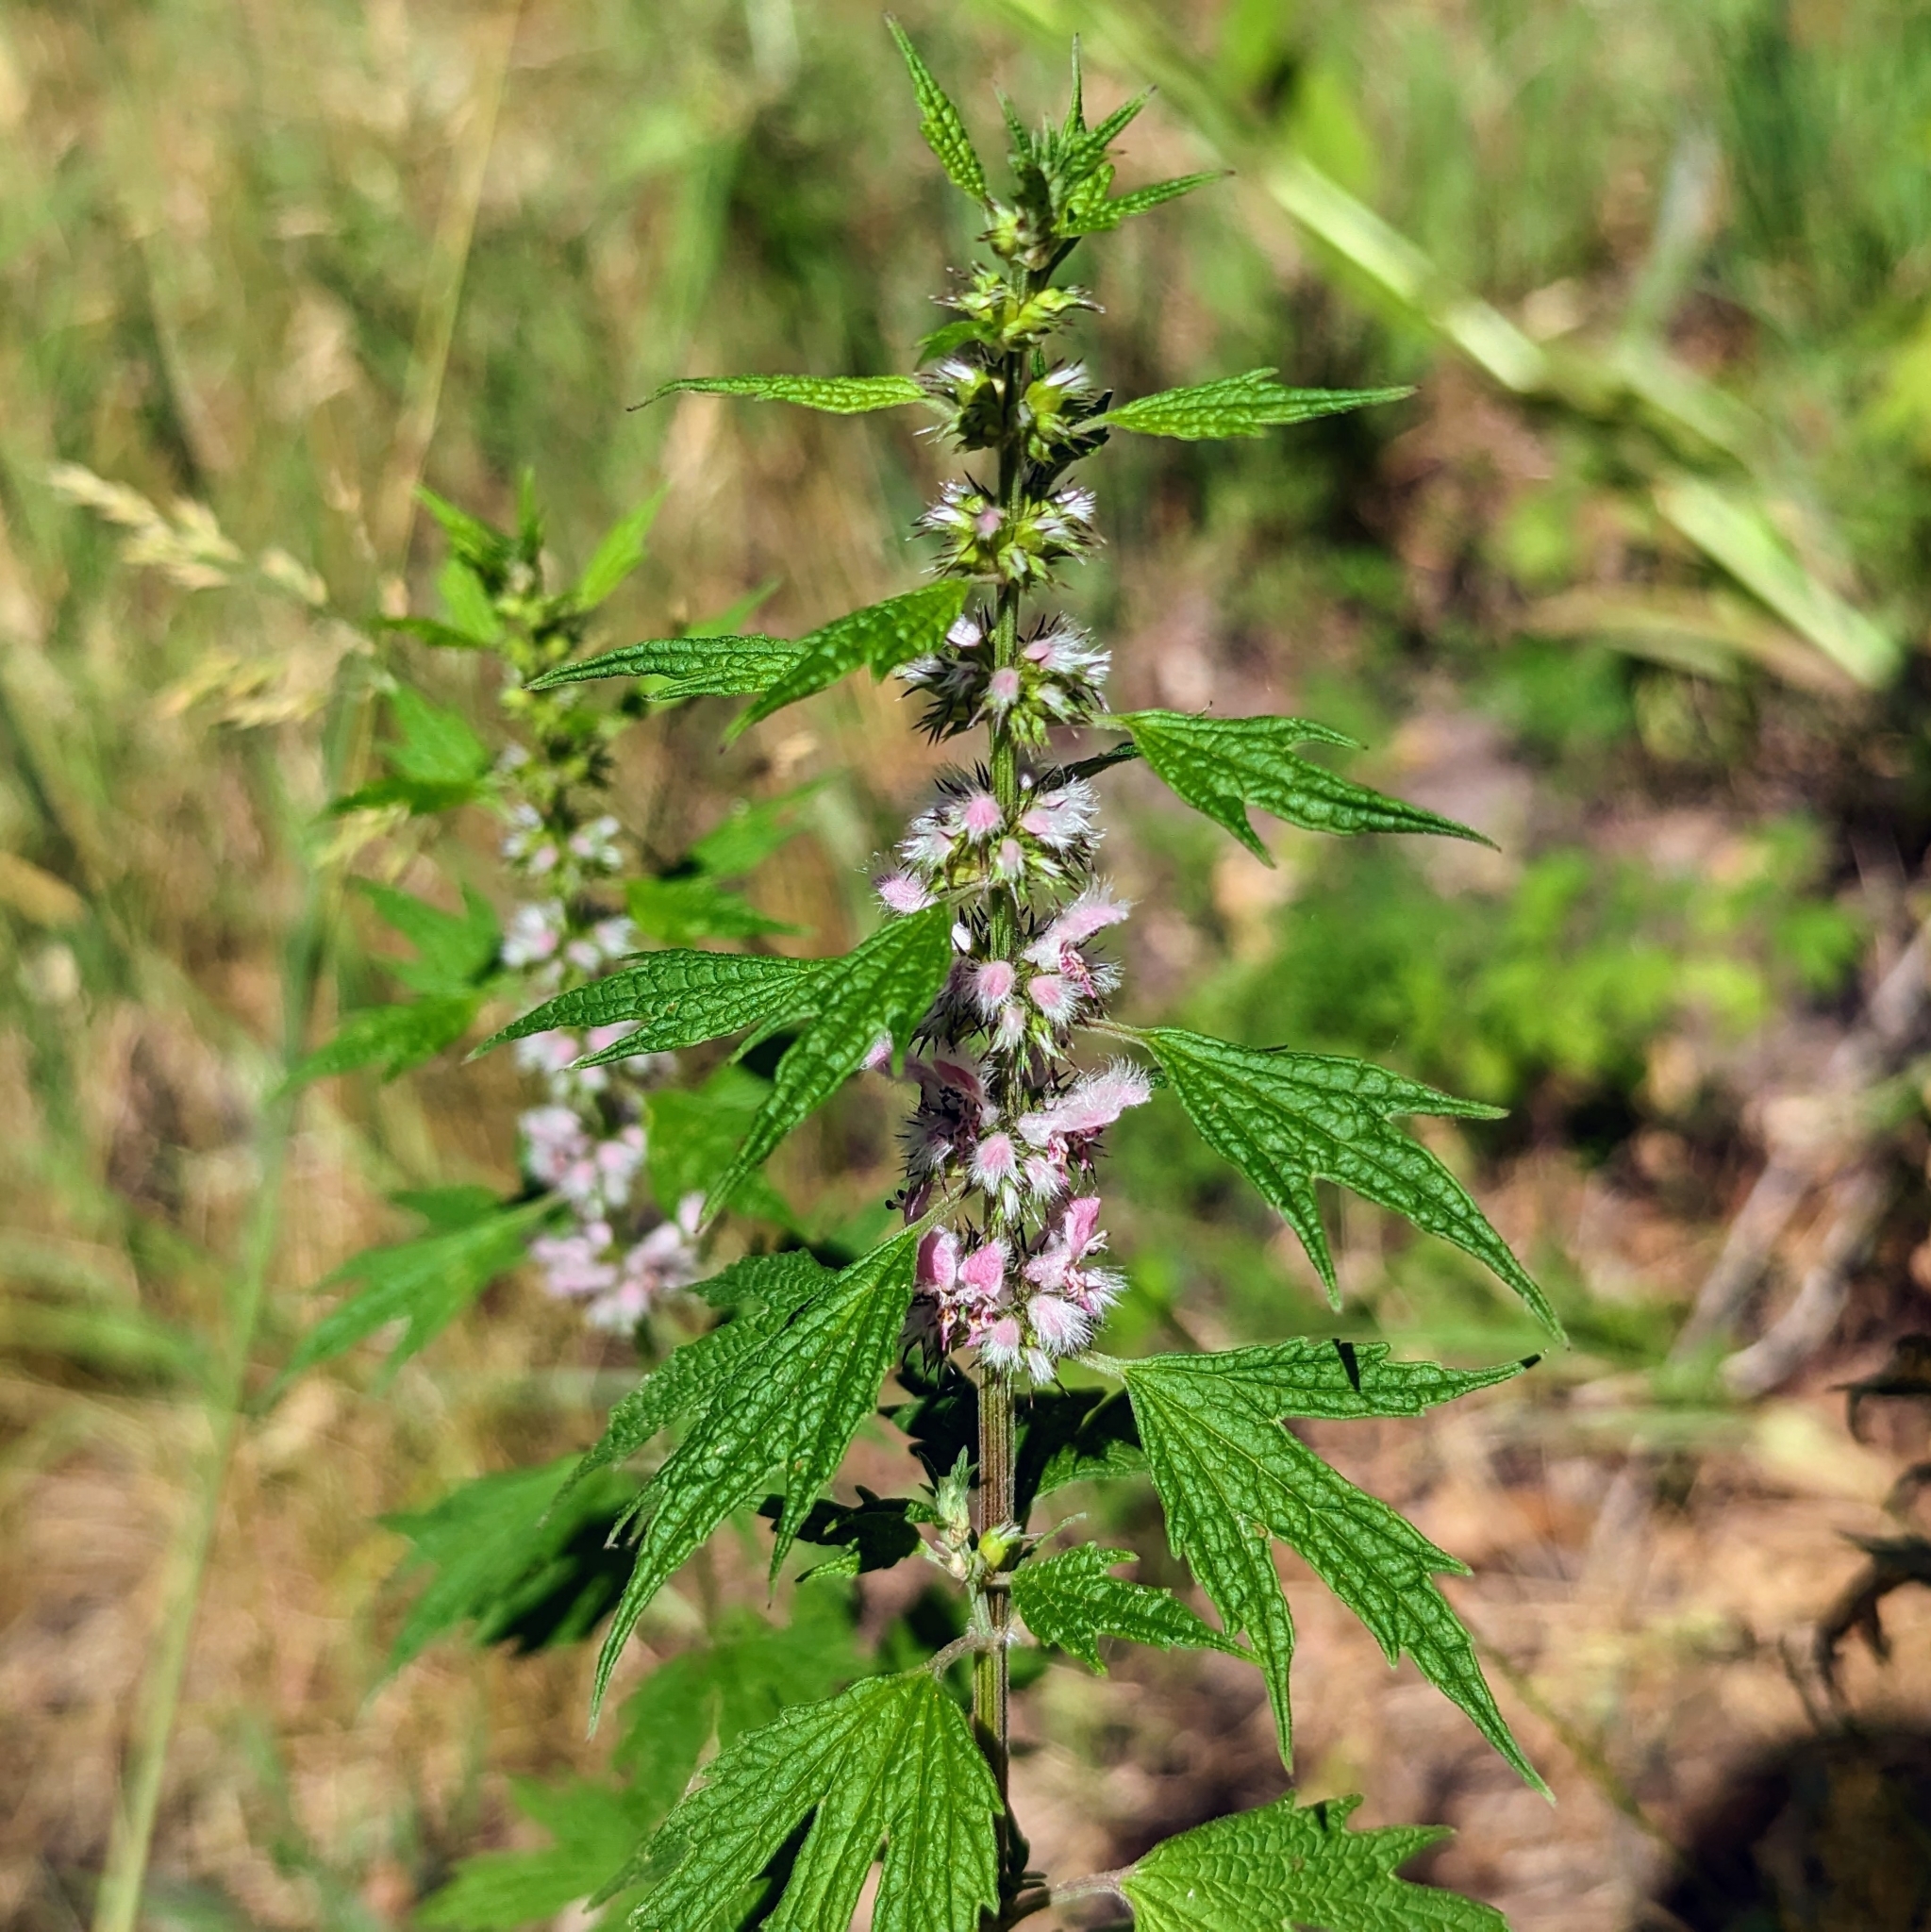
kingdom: Plantae
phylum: Tracheophyta
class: Magnoliopsida
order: Lamiales
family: Lamiaceae
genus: Leonurus
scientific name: Leonurus cardiaca
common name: Motherwort
